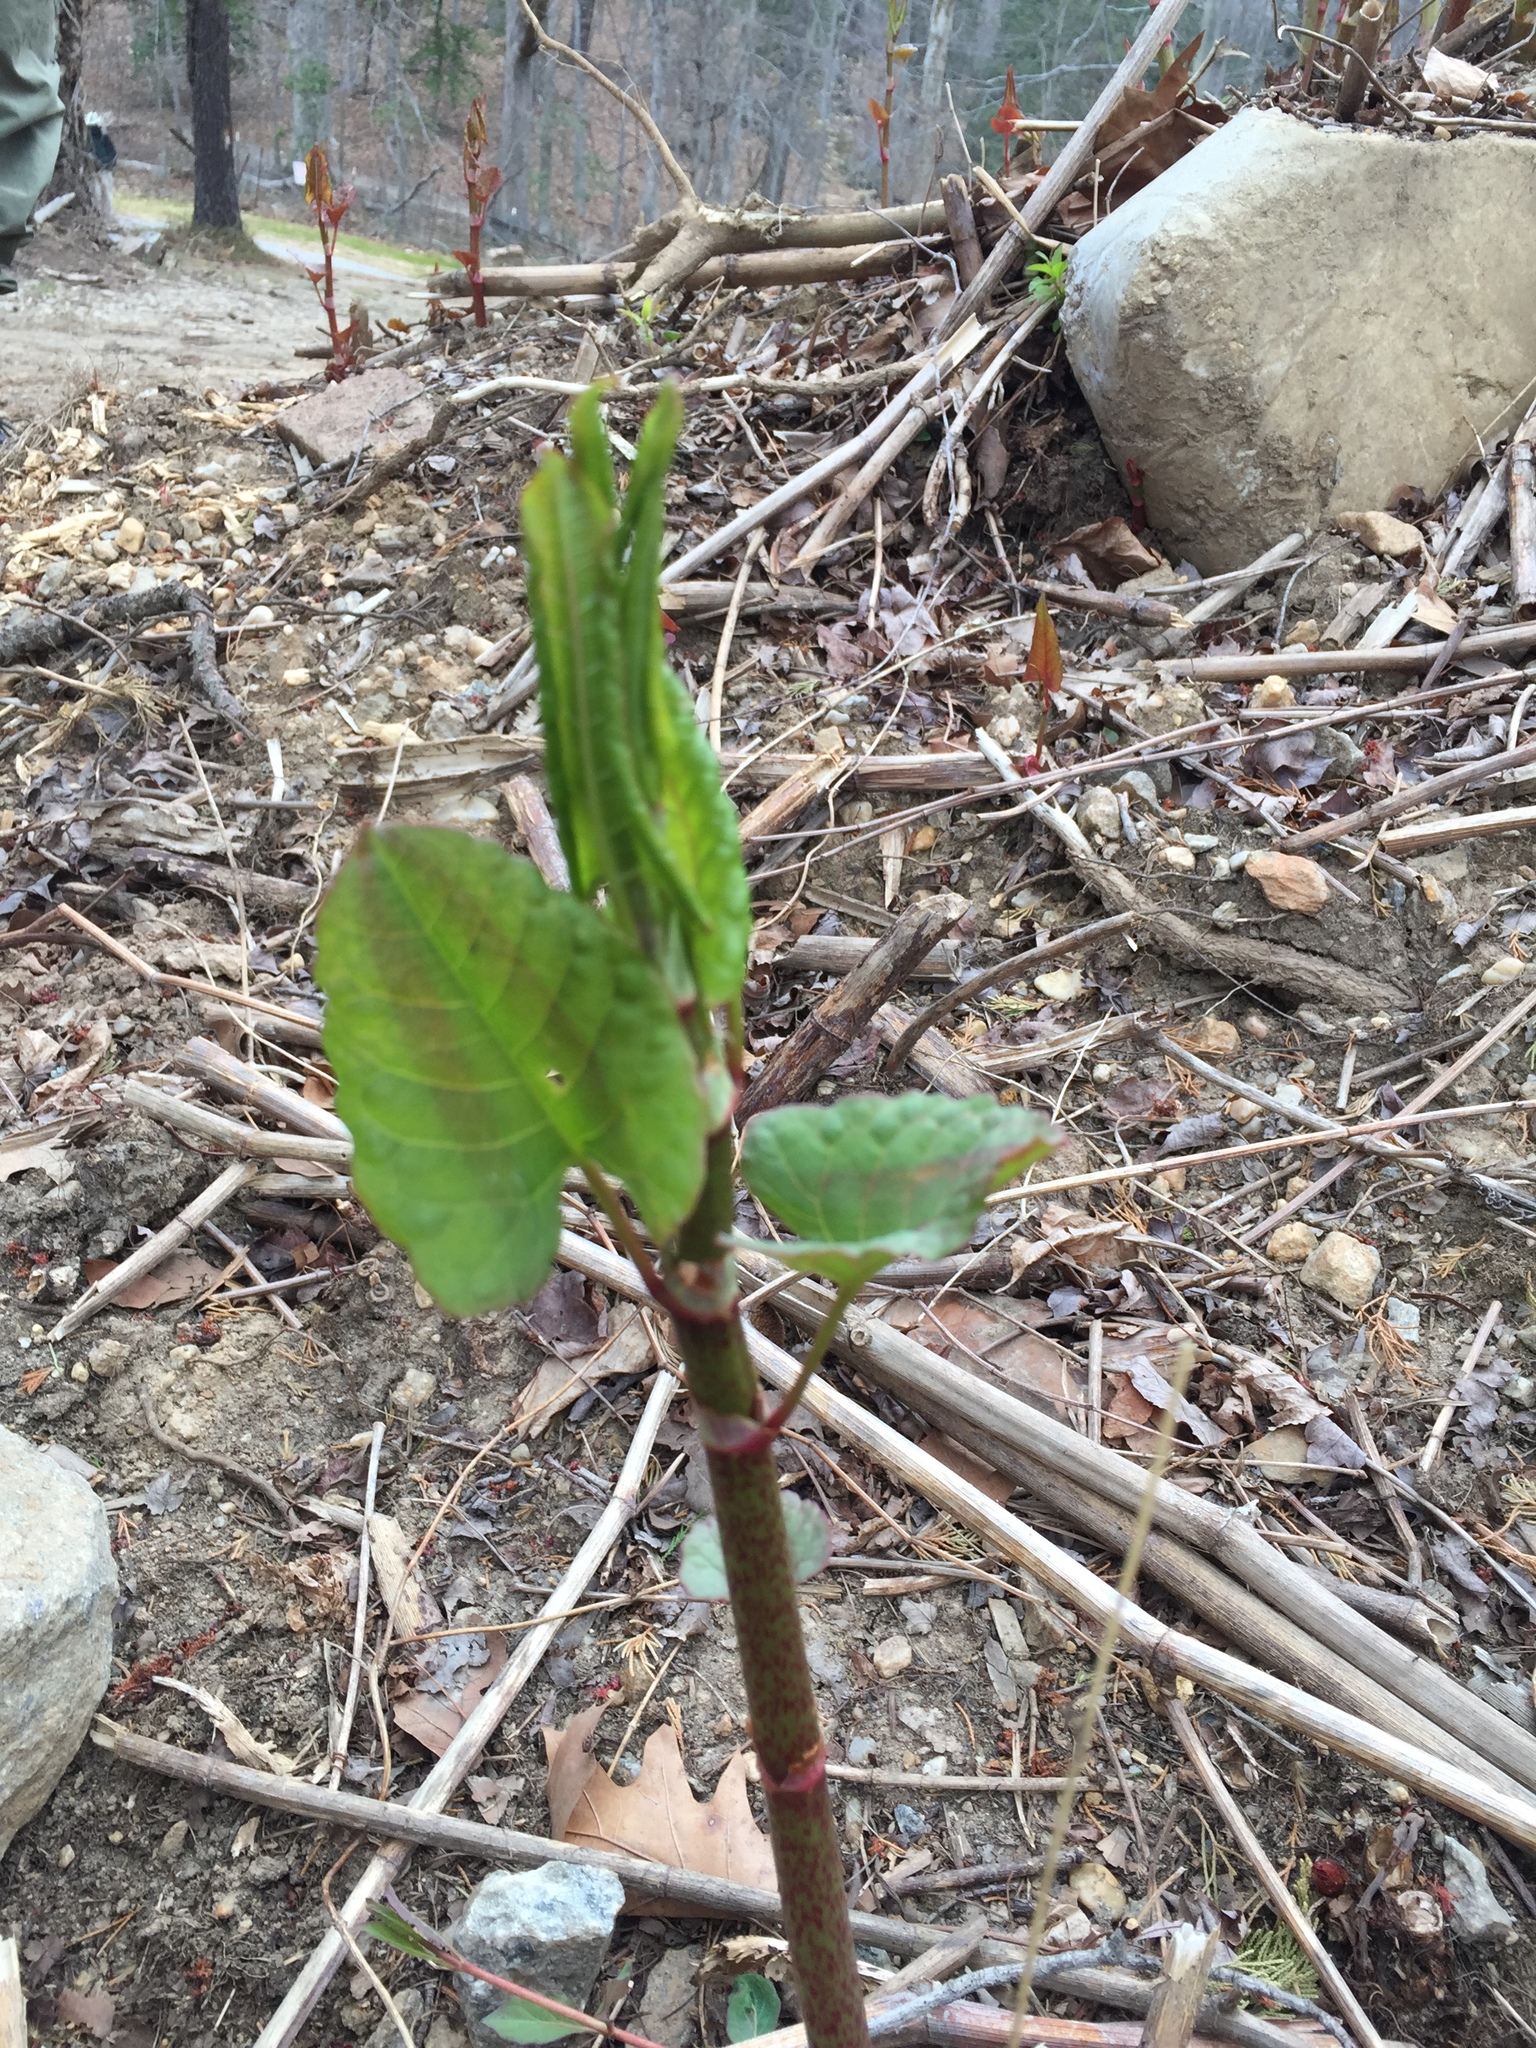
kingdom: Plantae
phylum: Tracheophyta
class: Magnoliopsida
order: Caryophyllales
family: Polygonaceae
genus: Reynoutria
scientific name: Reynoutria japonica
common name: Japanese knotweed
